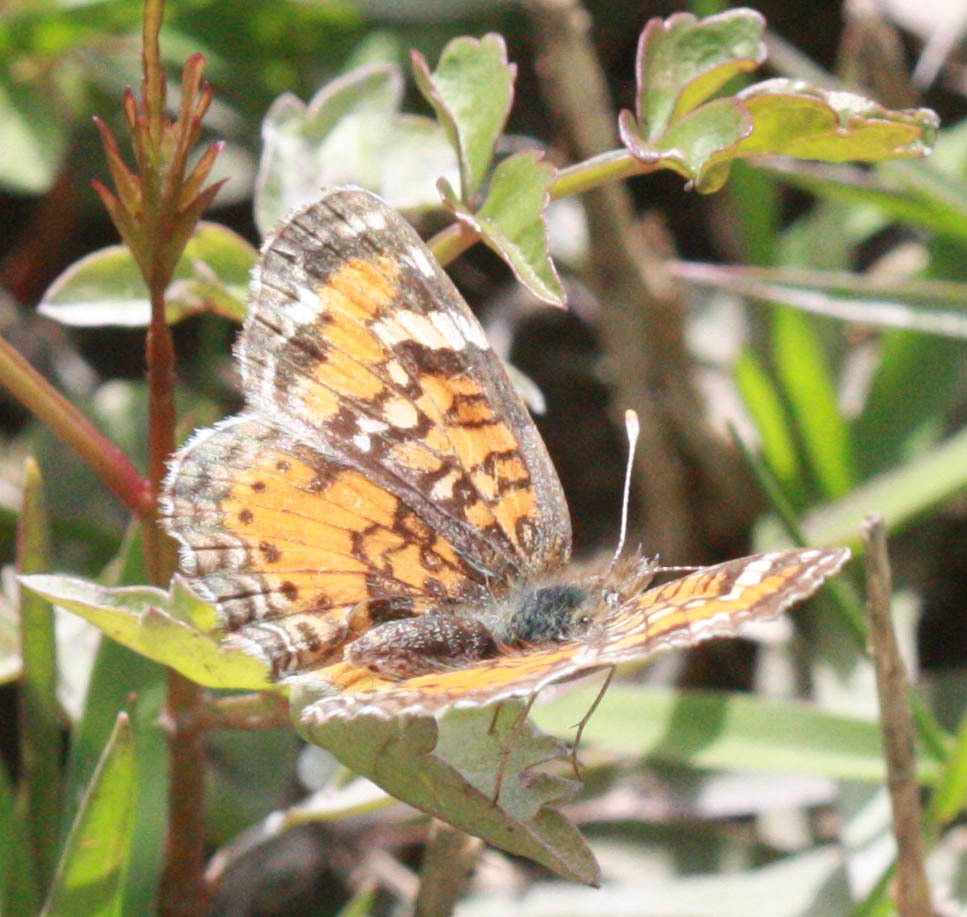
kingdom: Animalia
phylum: Arthropoda
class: Insecta
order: Lepidoptera
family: Nymphalidae
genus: Phyciodes
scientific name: Phyciodes phaon
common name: Phaon crescent
